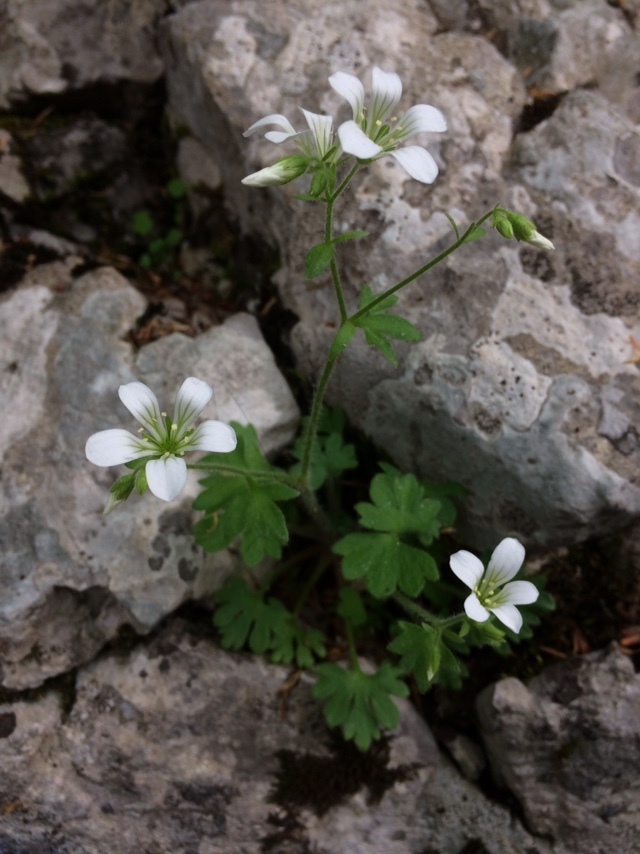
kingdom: Plantae
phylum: Tracheophyta
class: Magnoliopsida
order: Saxifragales
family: Saxifragaceae
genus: Saxifraga
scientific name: Saxifraga irrigua
